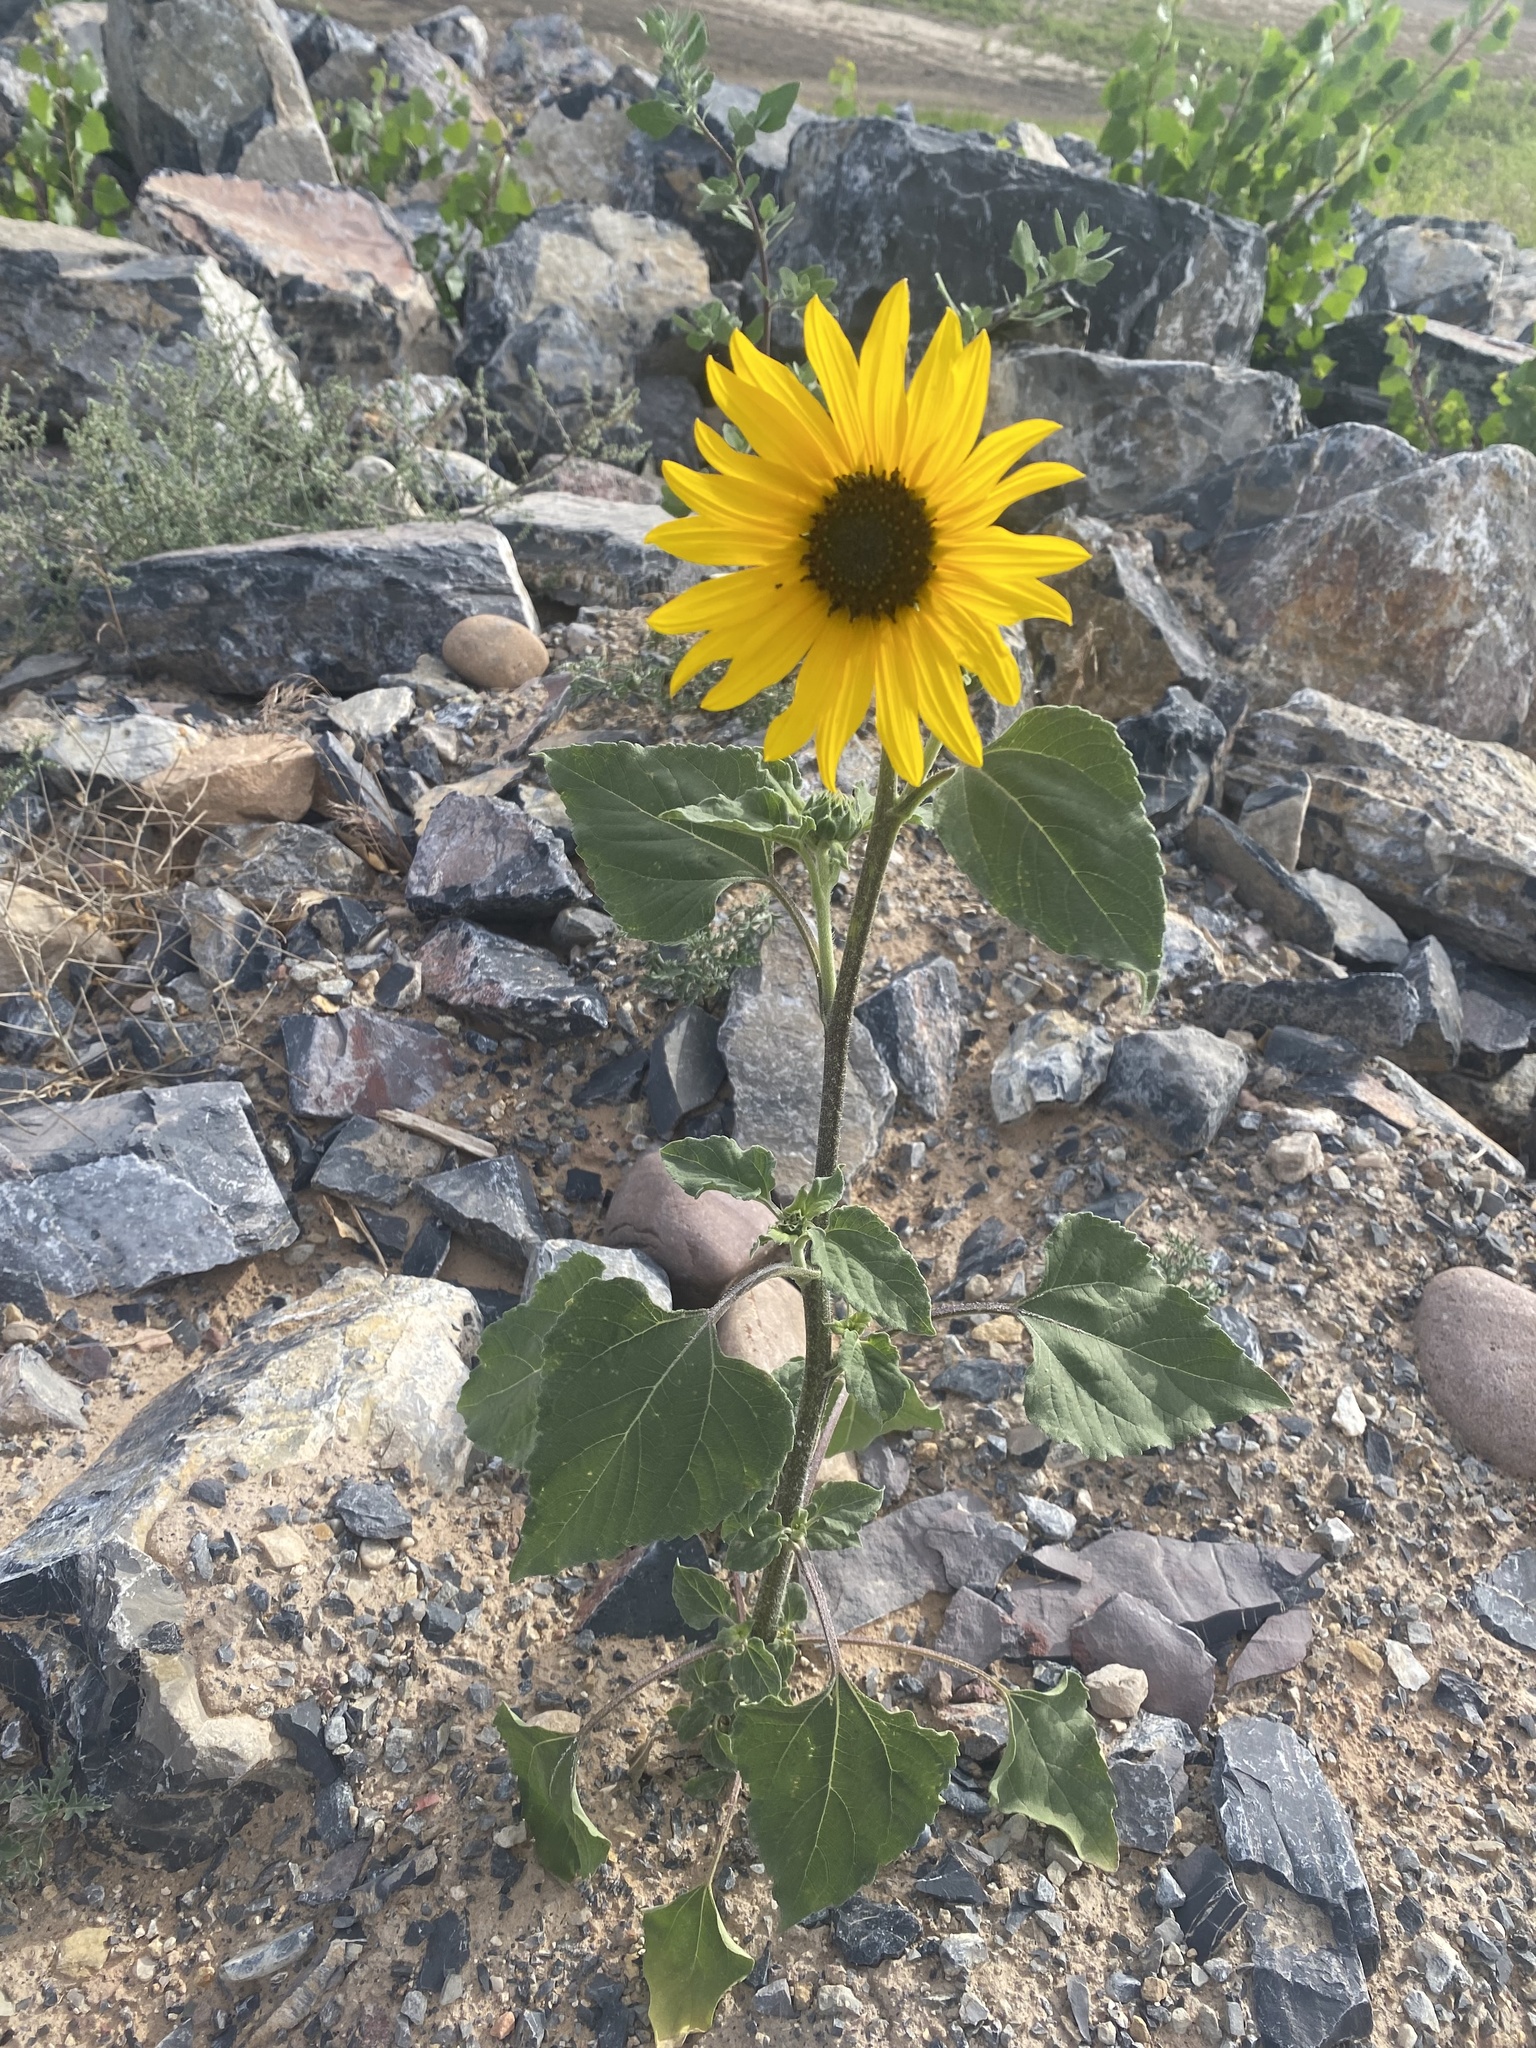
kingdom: Plantae
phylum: Tracheophyta
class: Magnoliopsida
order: Asterales
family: Asteraceae
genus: Helianthus
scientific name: Helianthus annuus
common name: Sunflower
